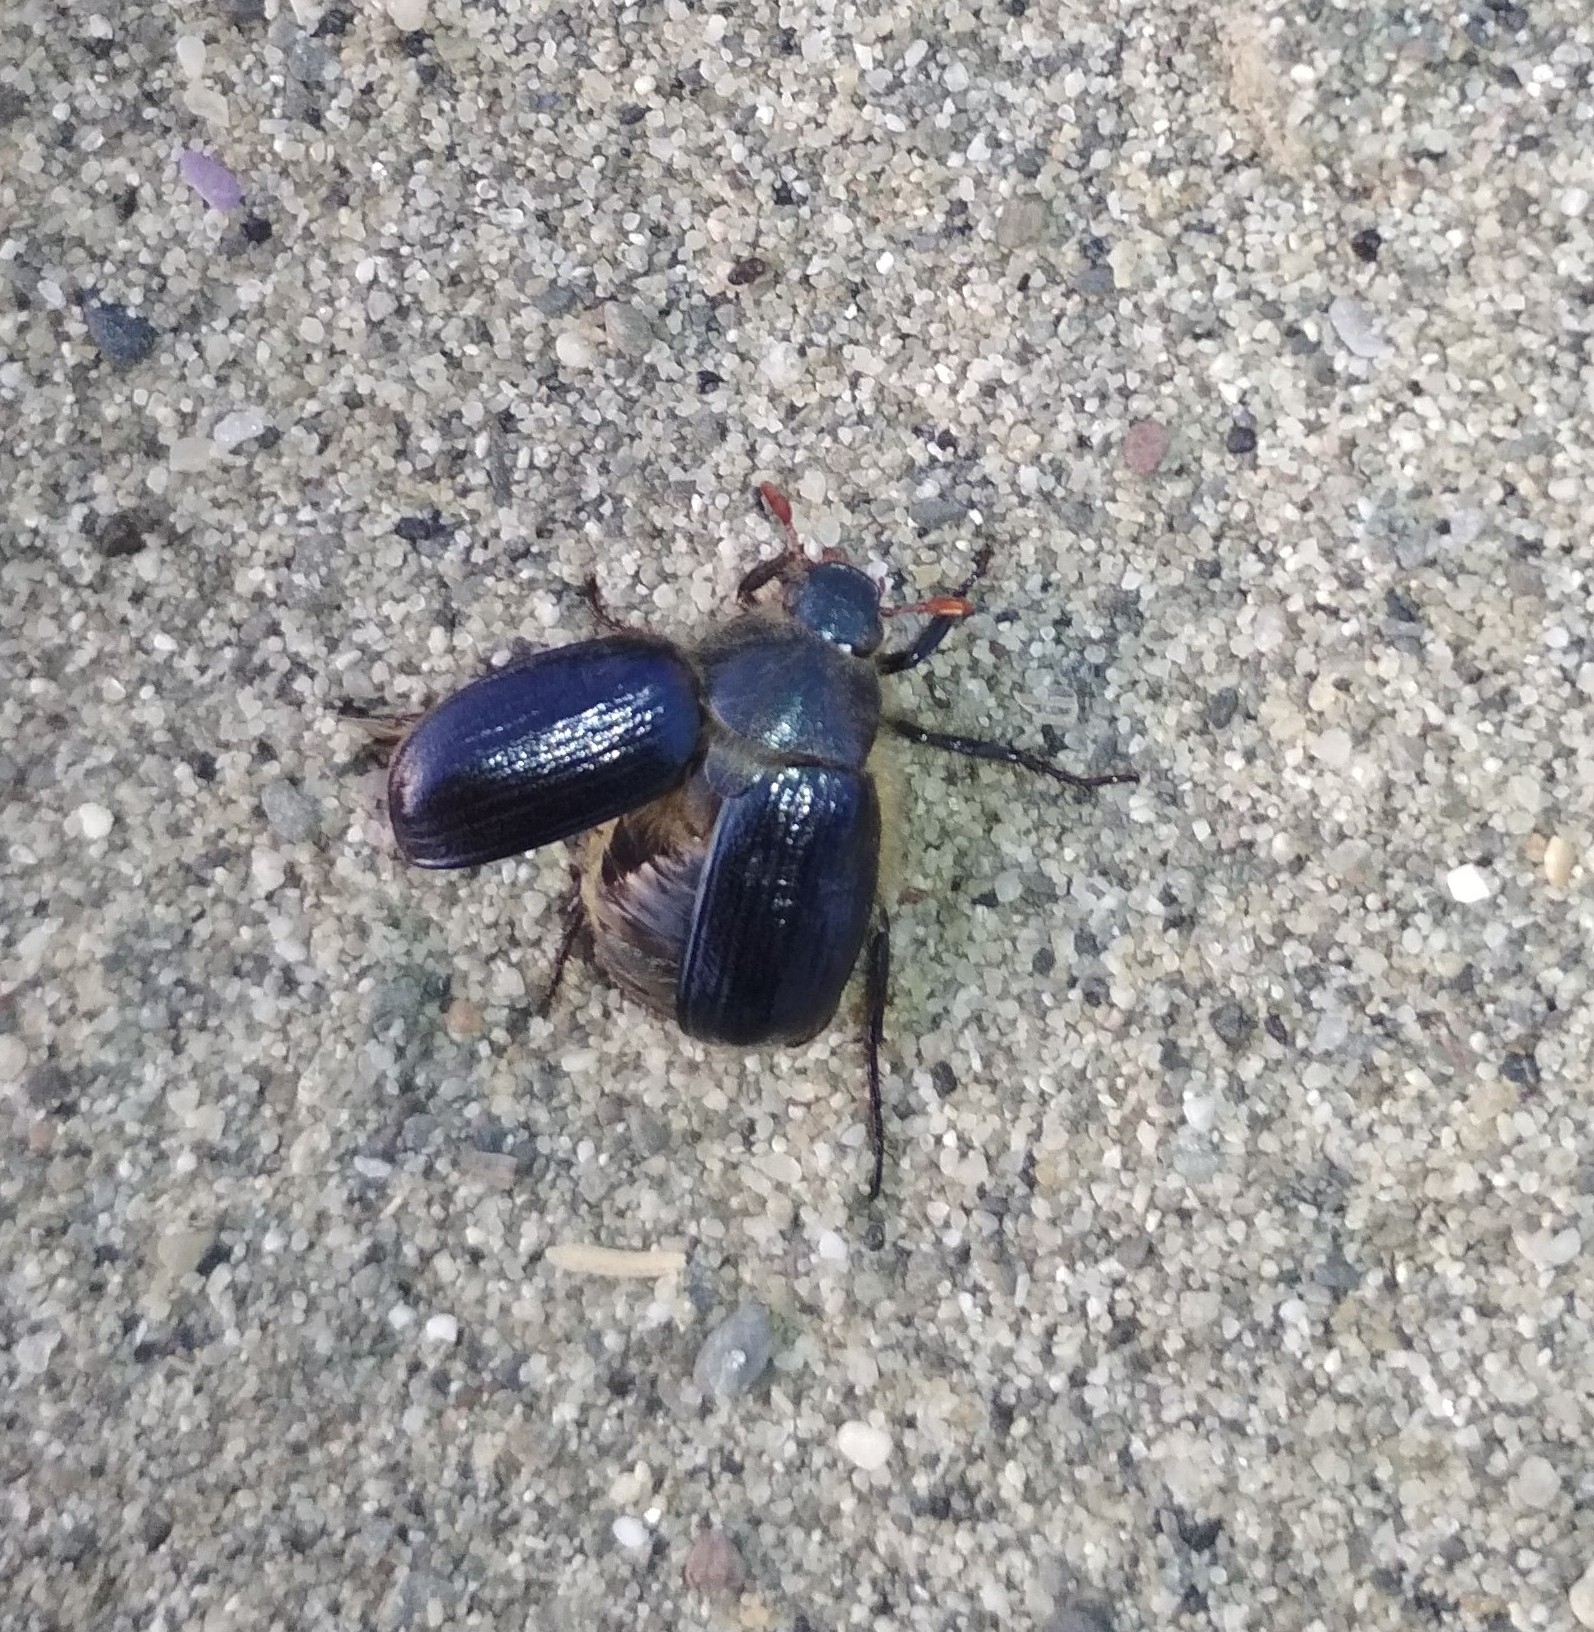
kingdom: Animalia
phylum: Arthropoda
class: Insecta
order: Coleoptera
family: Scarabaeidae
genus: Anomala
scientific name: Anomala dubia
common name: Dune chafer
